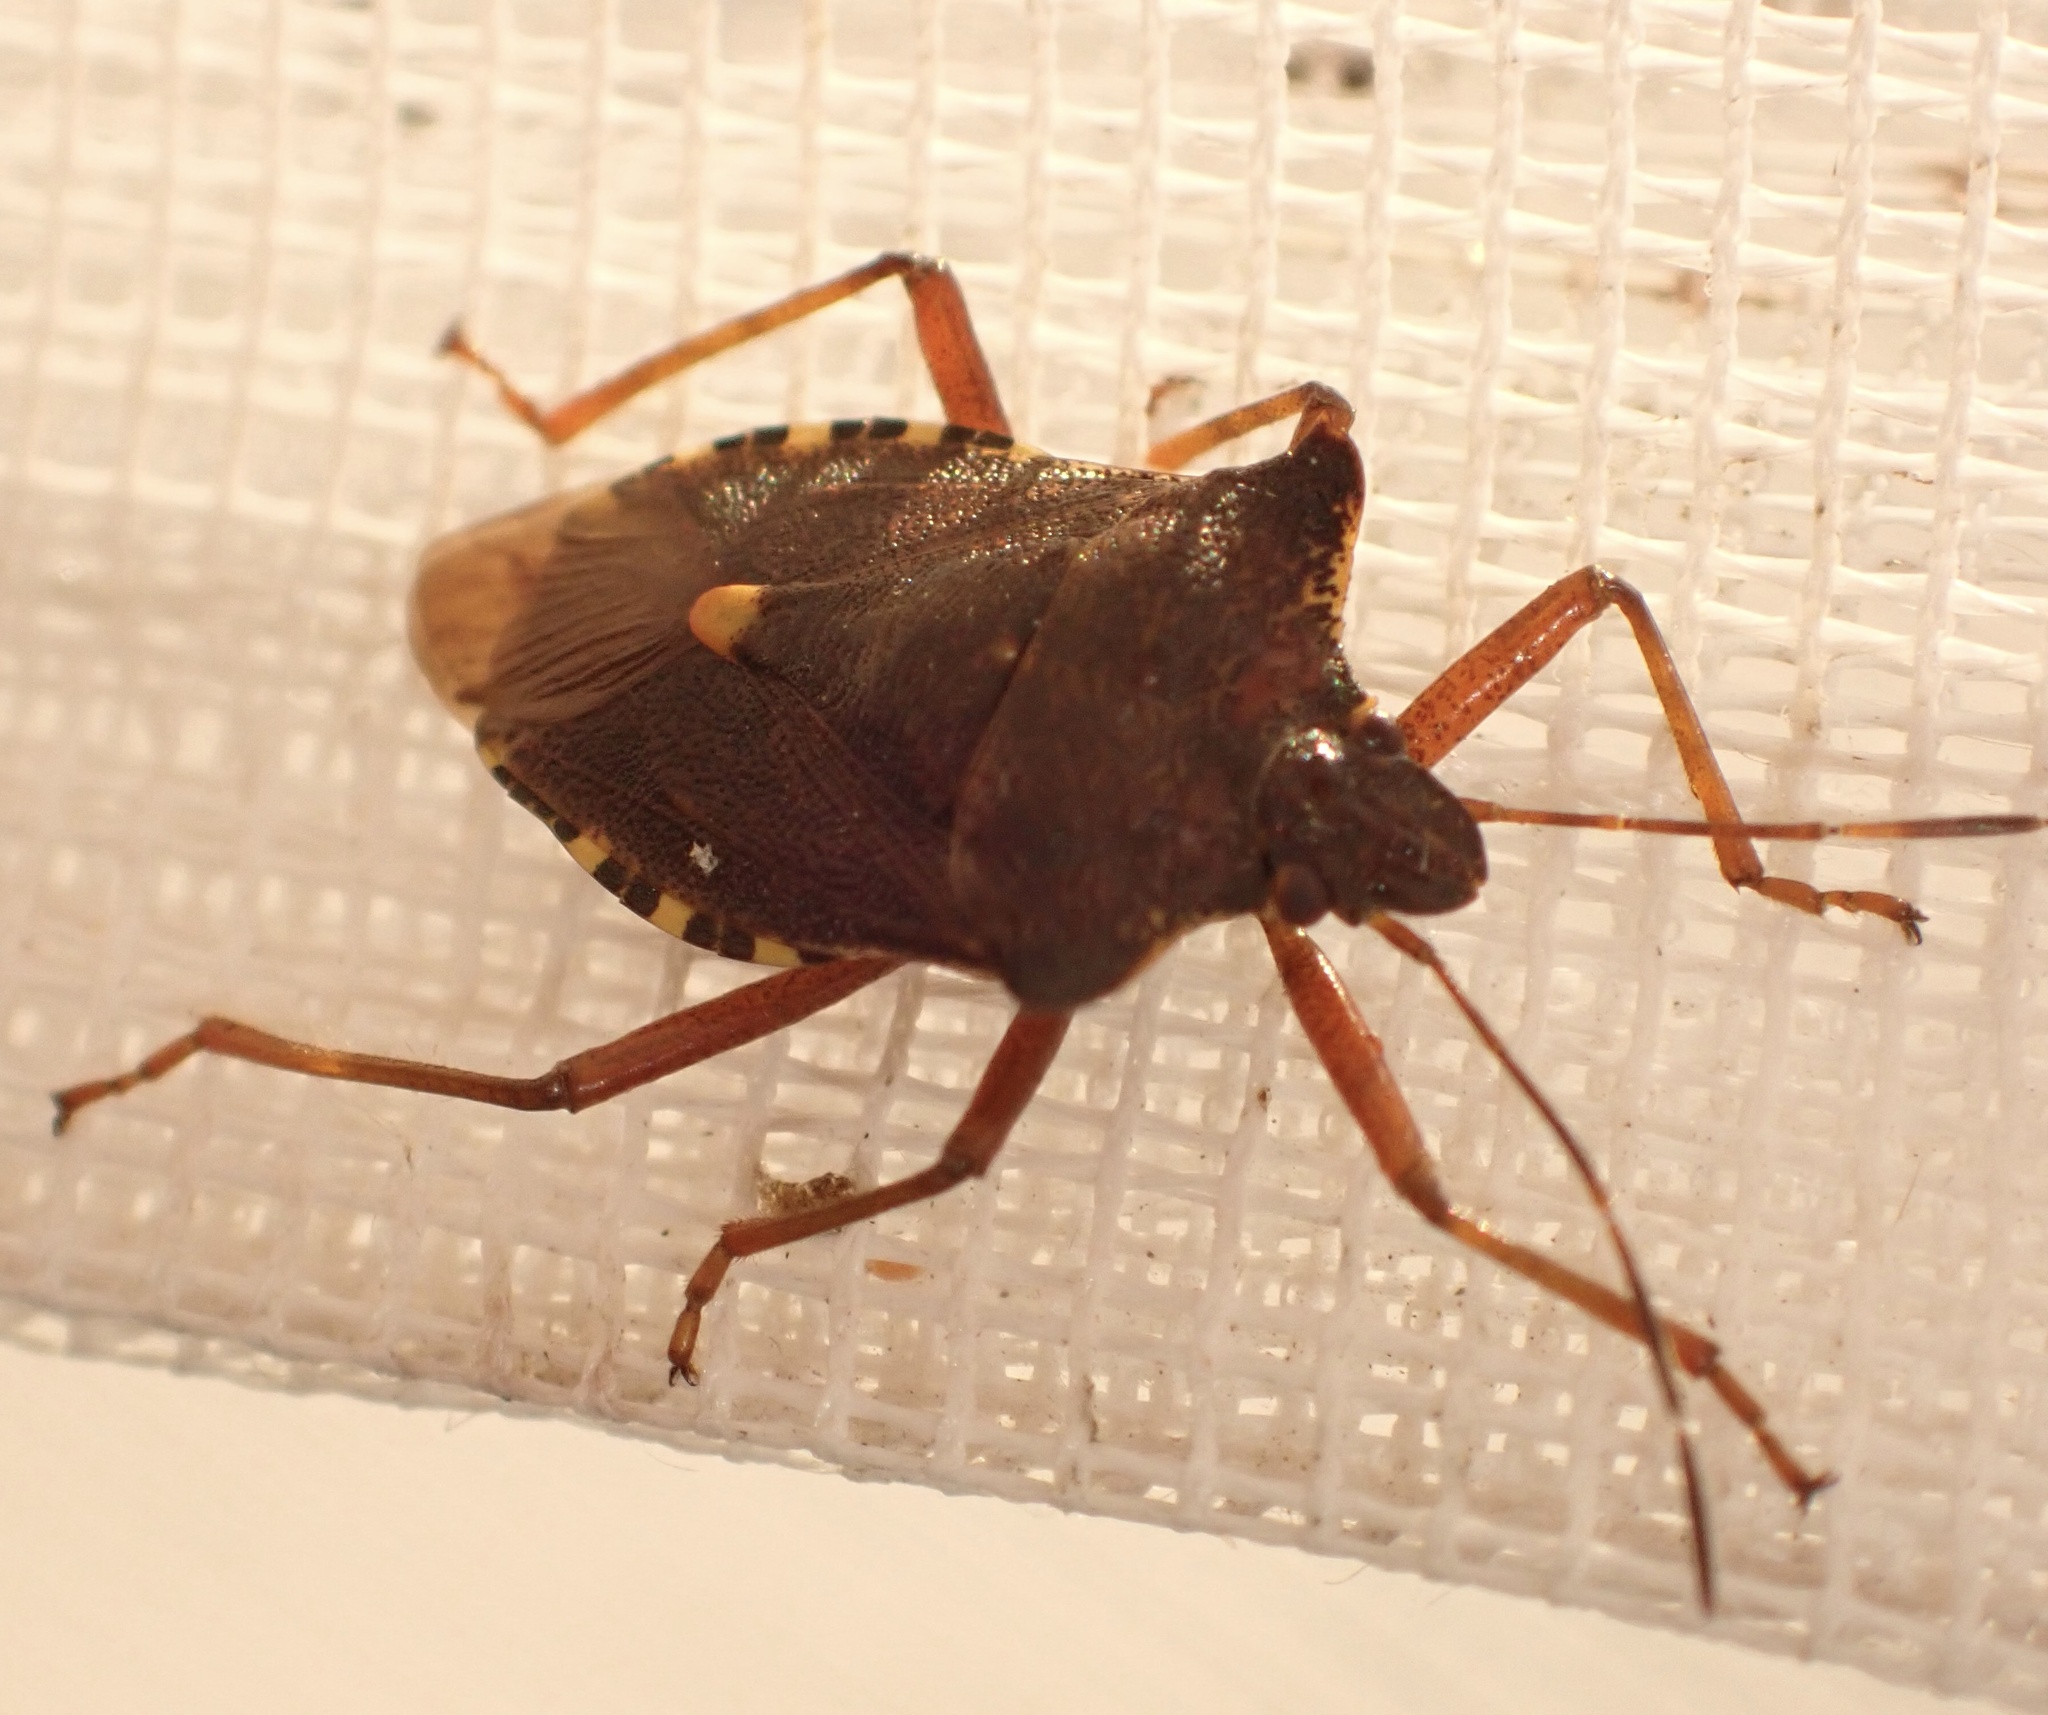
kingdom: Animalia
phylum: Arthropoda
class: Insecta
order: Hemiptera
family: Pentatomidae
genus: Pentatoma
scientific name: Pentatoma rufipes
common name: Forest bug
